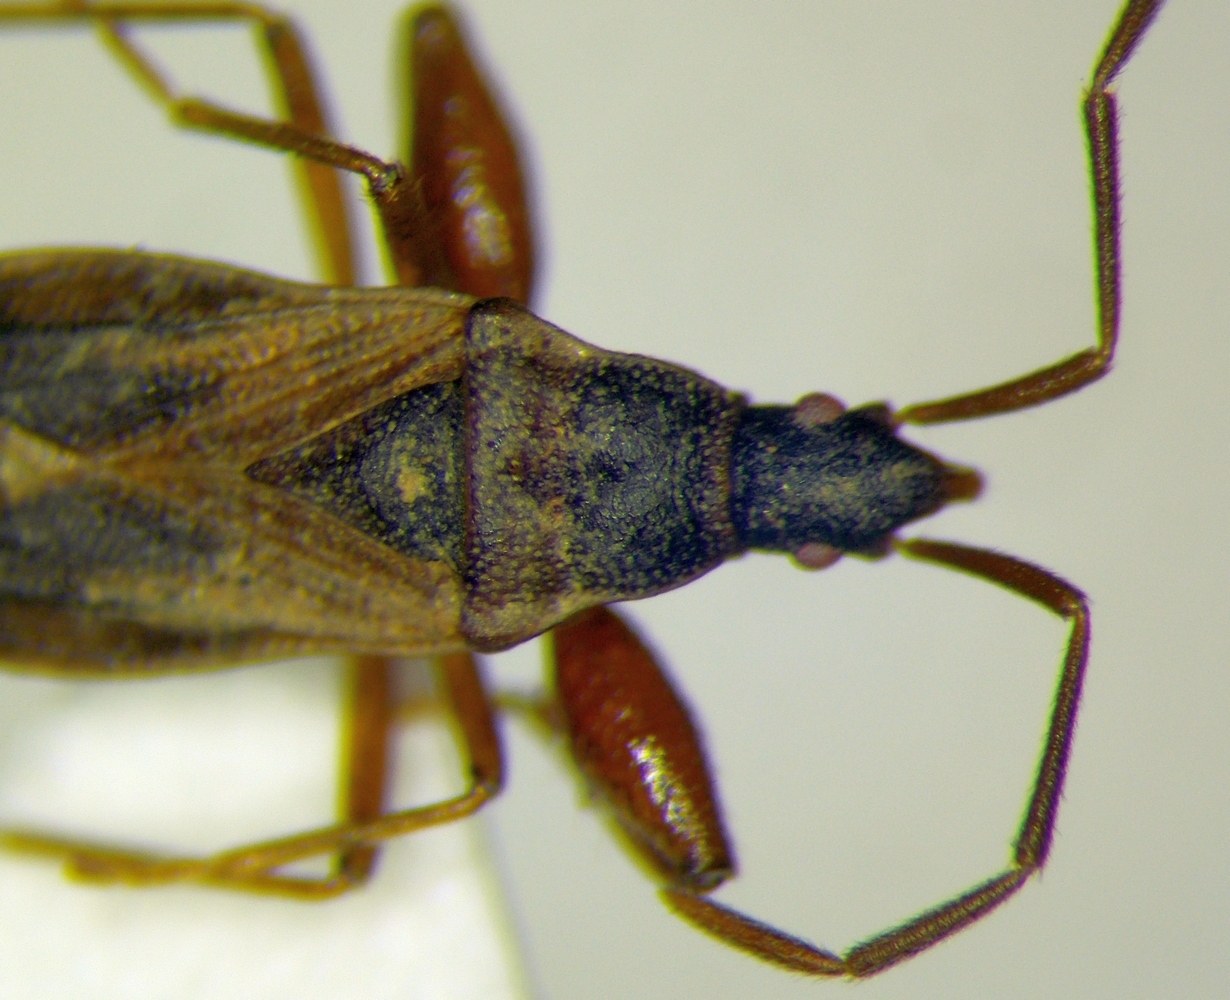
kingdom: Animalia
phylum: Arthropoda
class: Insecta
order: Hemiptera
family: Rhyparochromidae
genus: Thaumastopus
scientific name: Thaumastopus marginicollis
